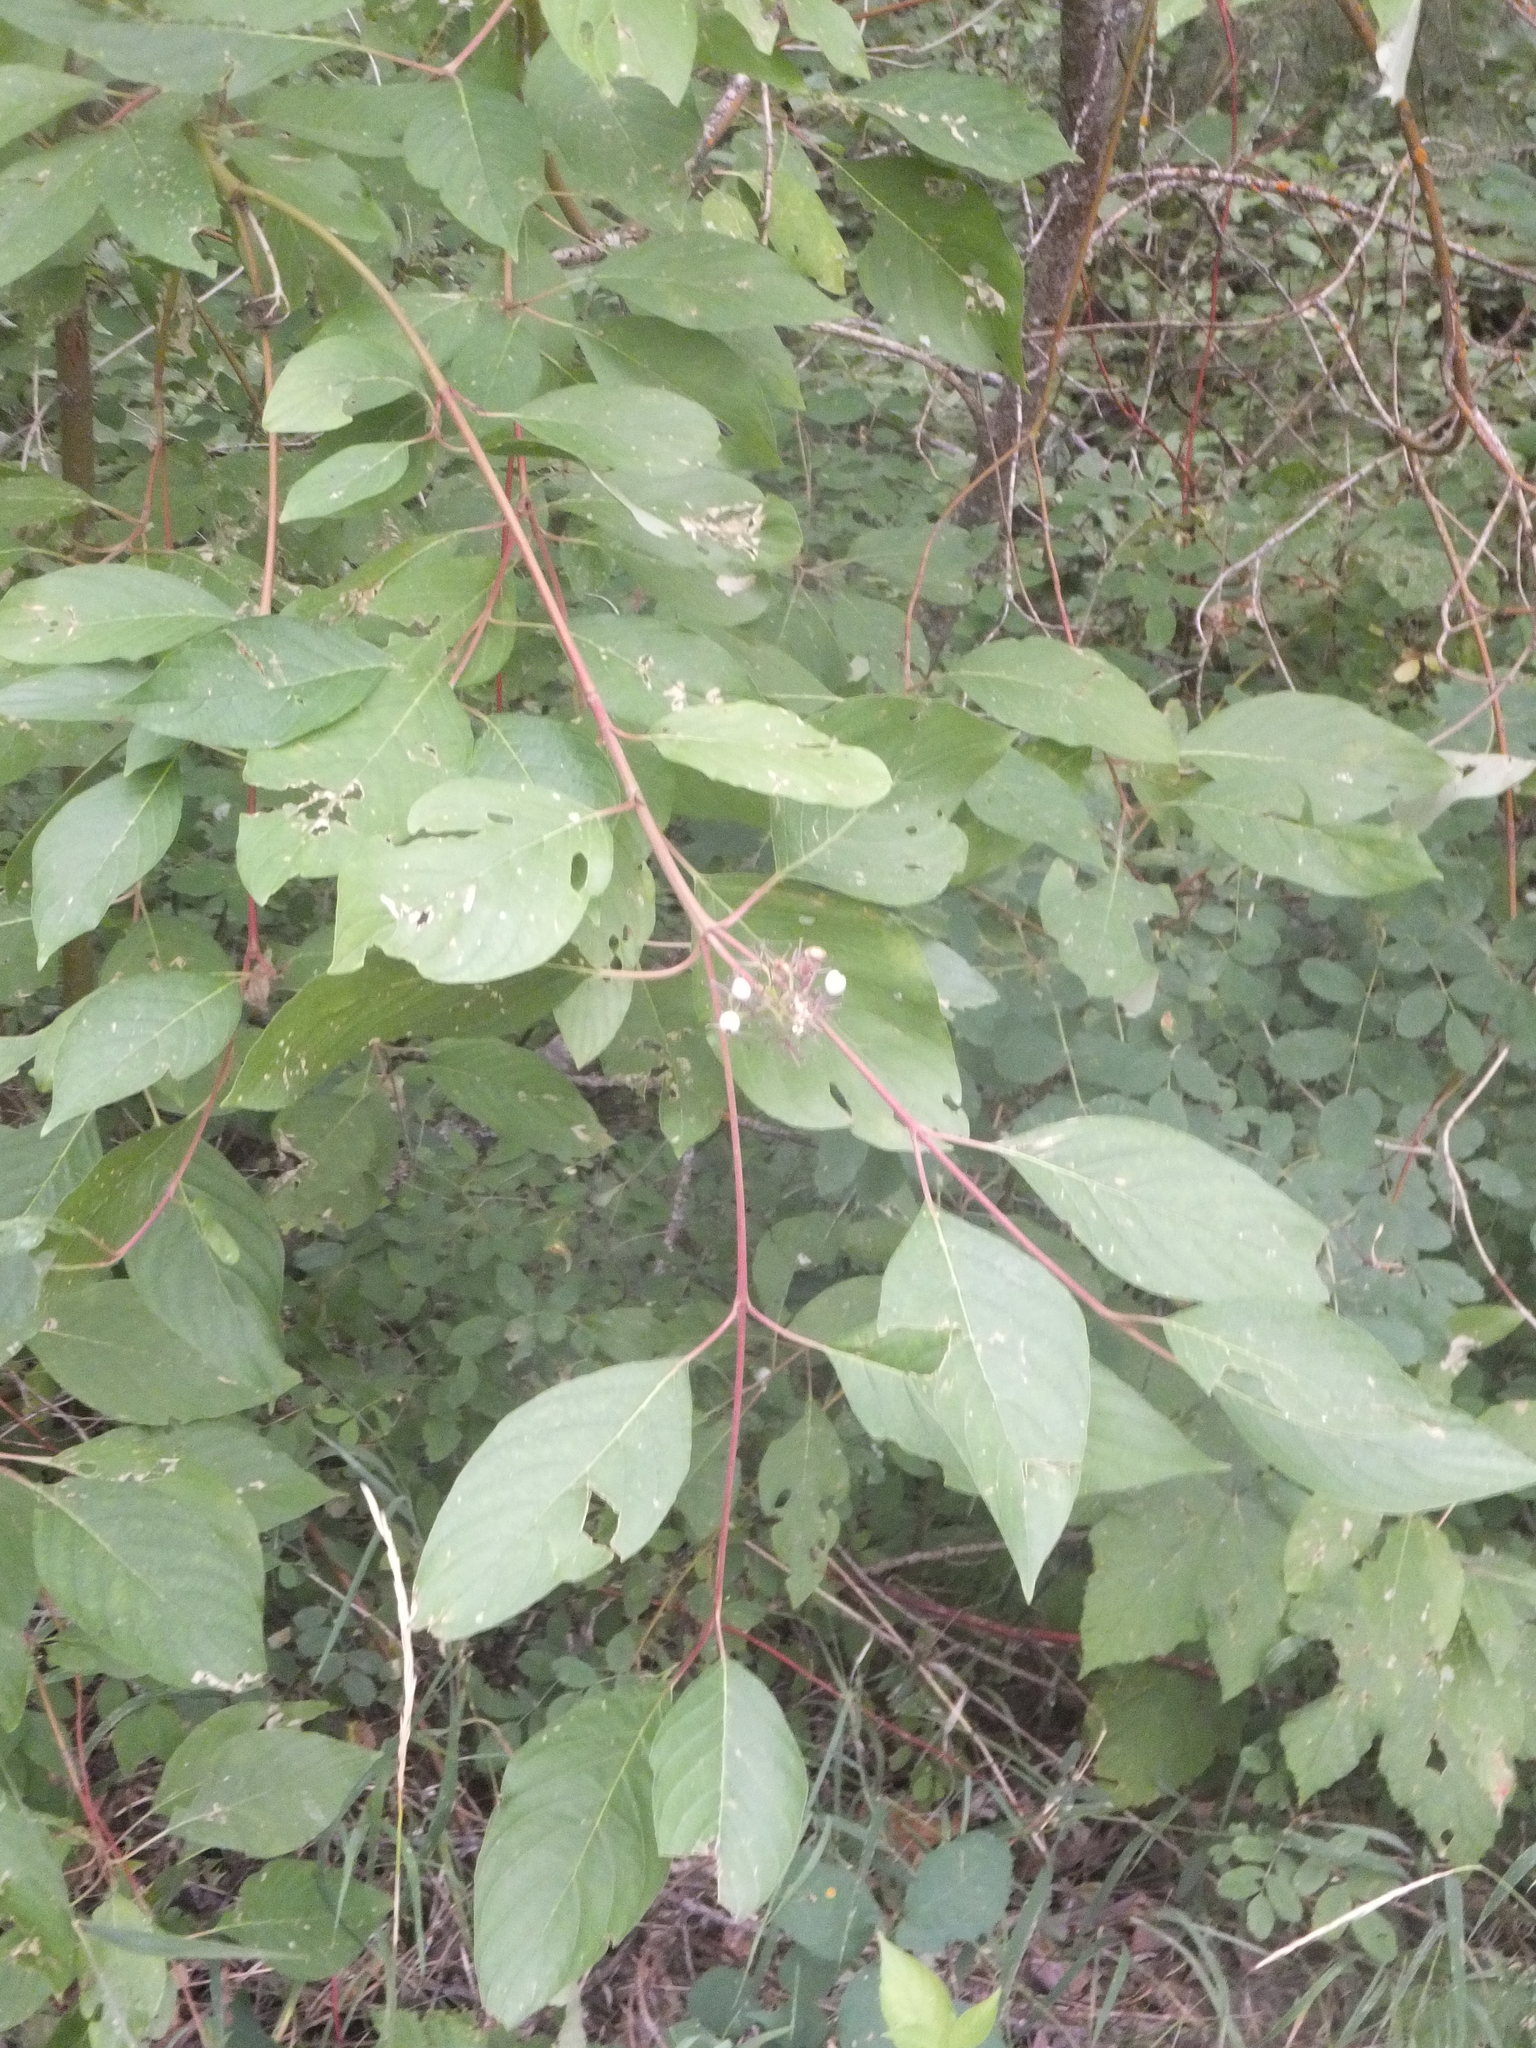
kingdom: Plantae
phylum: Tracheophyta
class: Magnoliopsida
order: Cornales
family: Cornaceae
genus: Cornus
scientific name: Cornus sericea
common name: Red-osier dogwood
